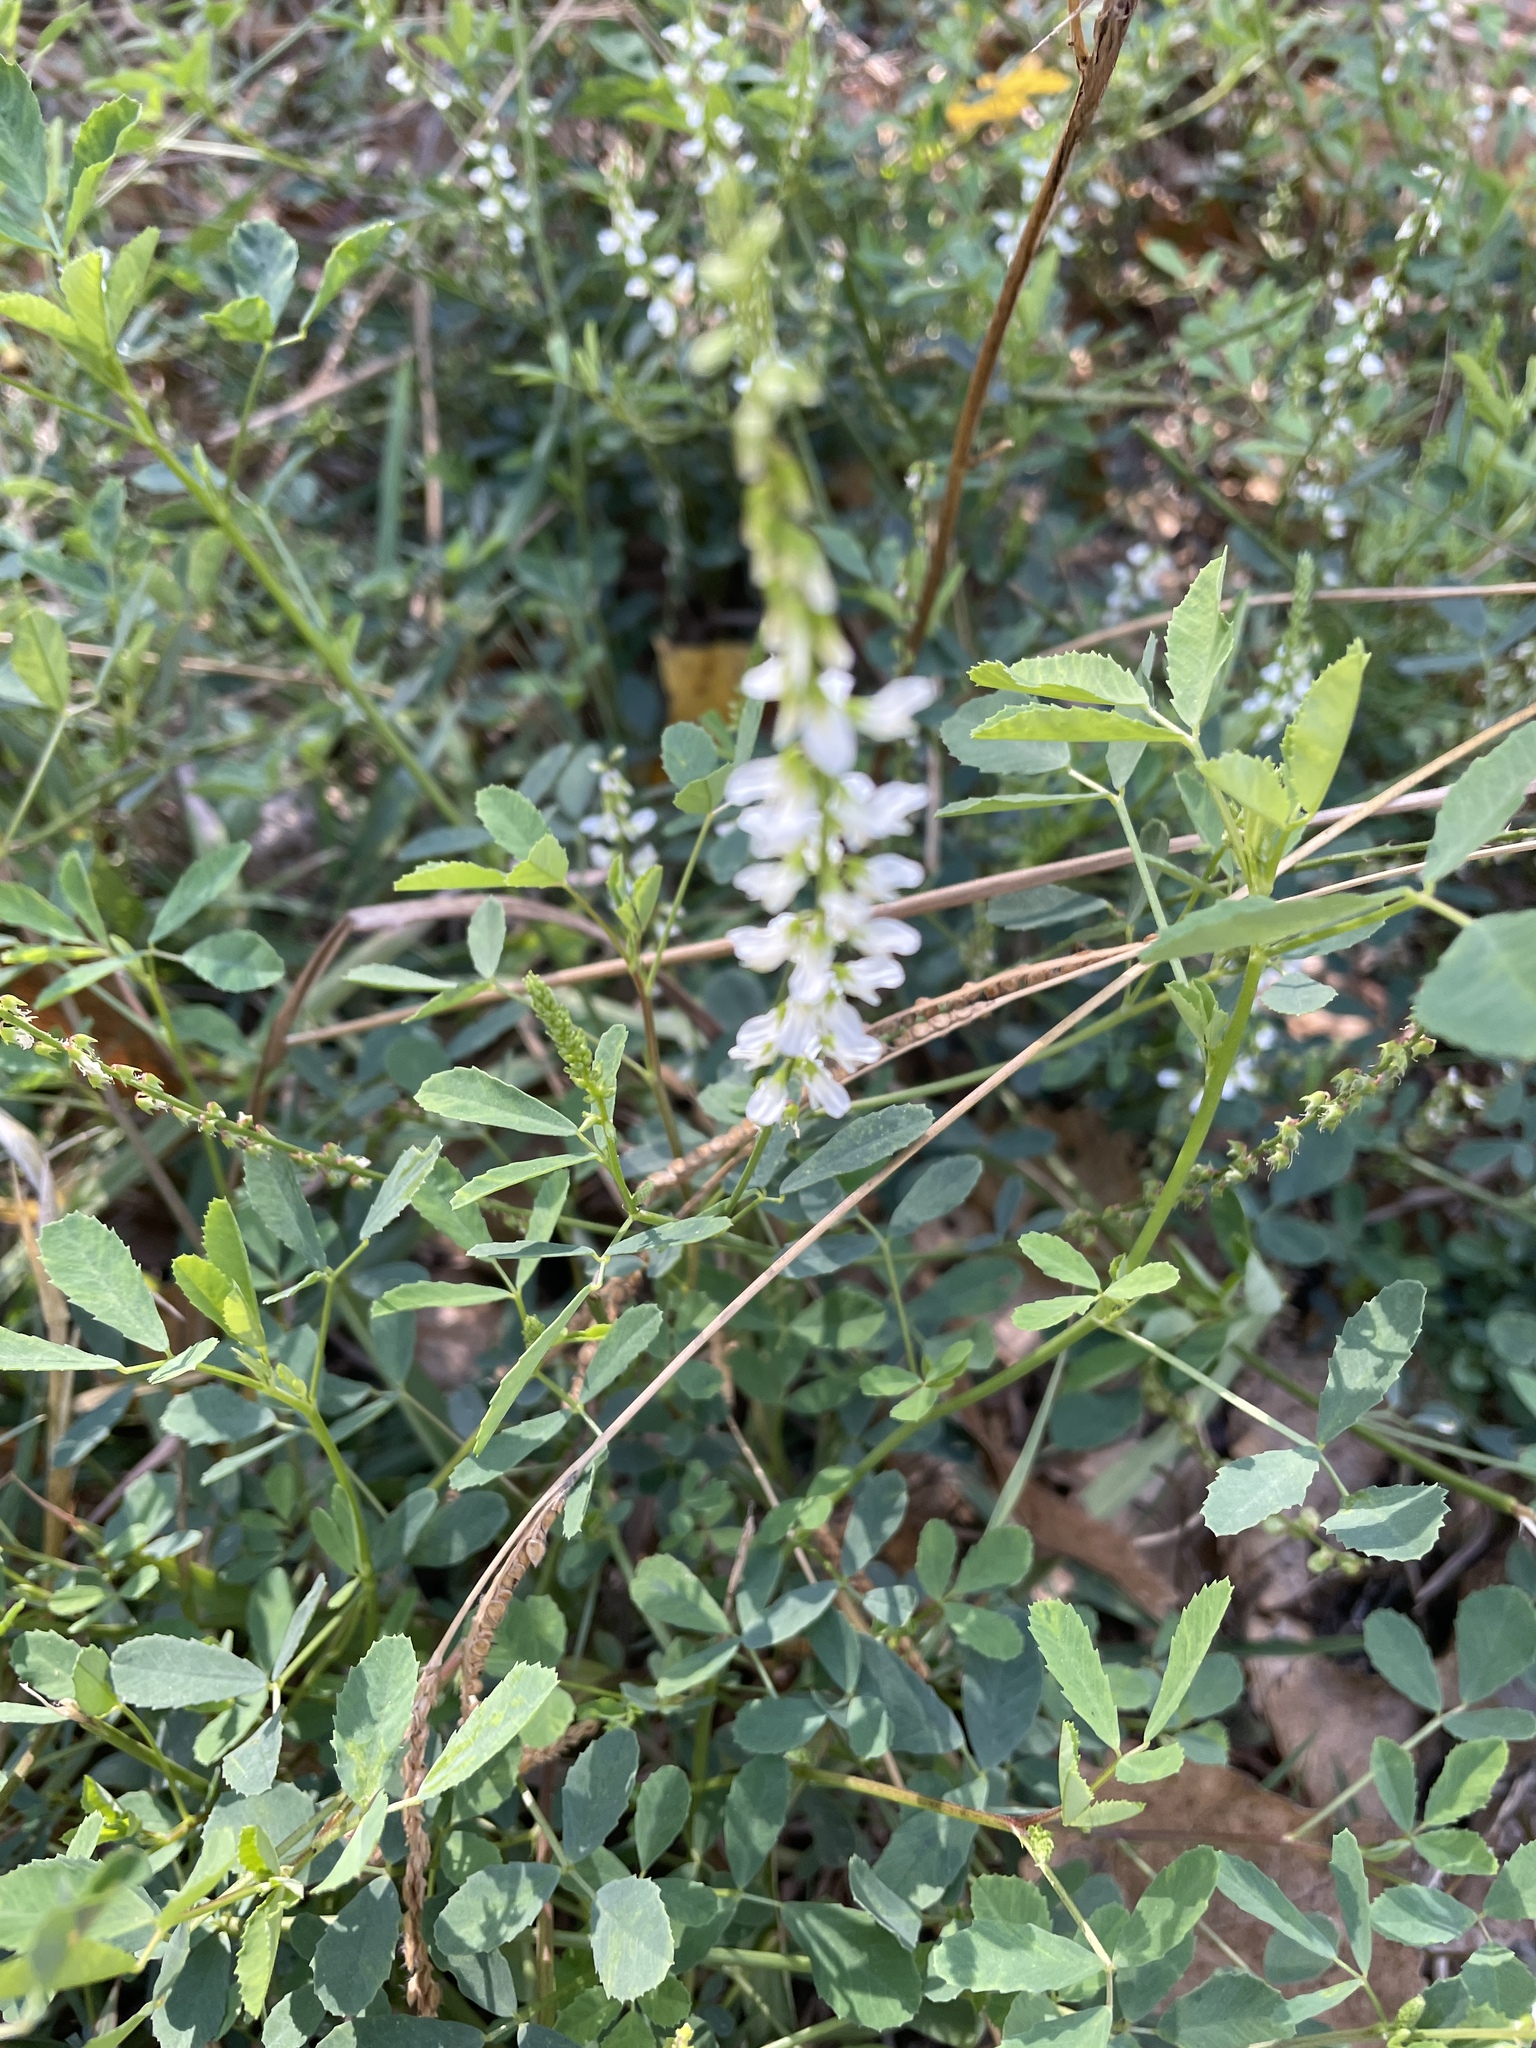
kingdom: Plantae
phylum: Tracheophyta
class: Magnoliopsida
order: Fabales
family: Fabaceae
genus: Melilotus
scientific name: Melilotus albus
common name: White melilot
